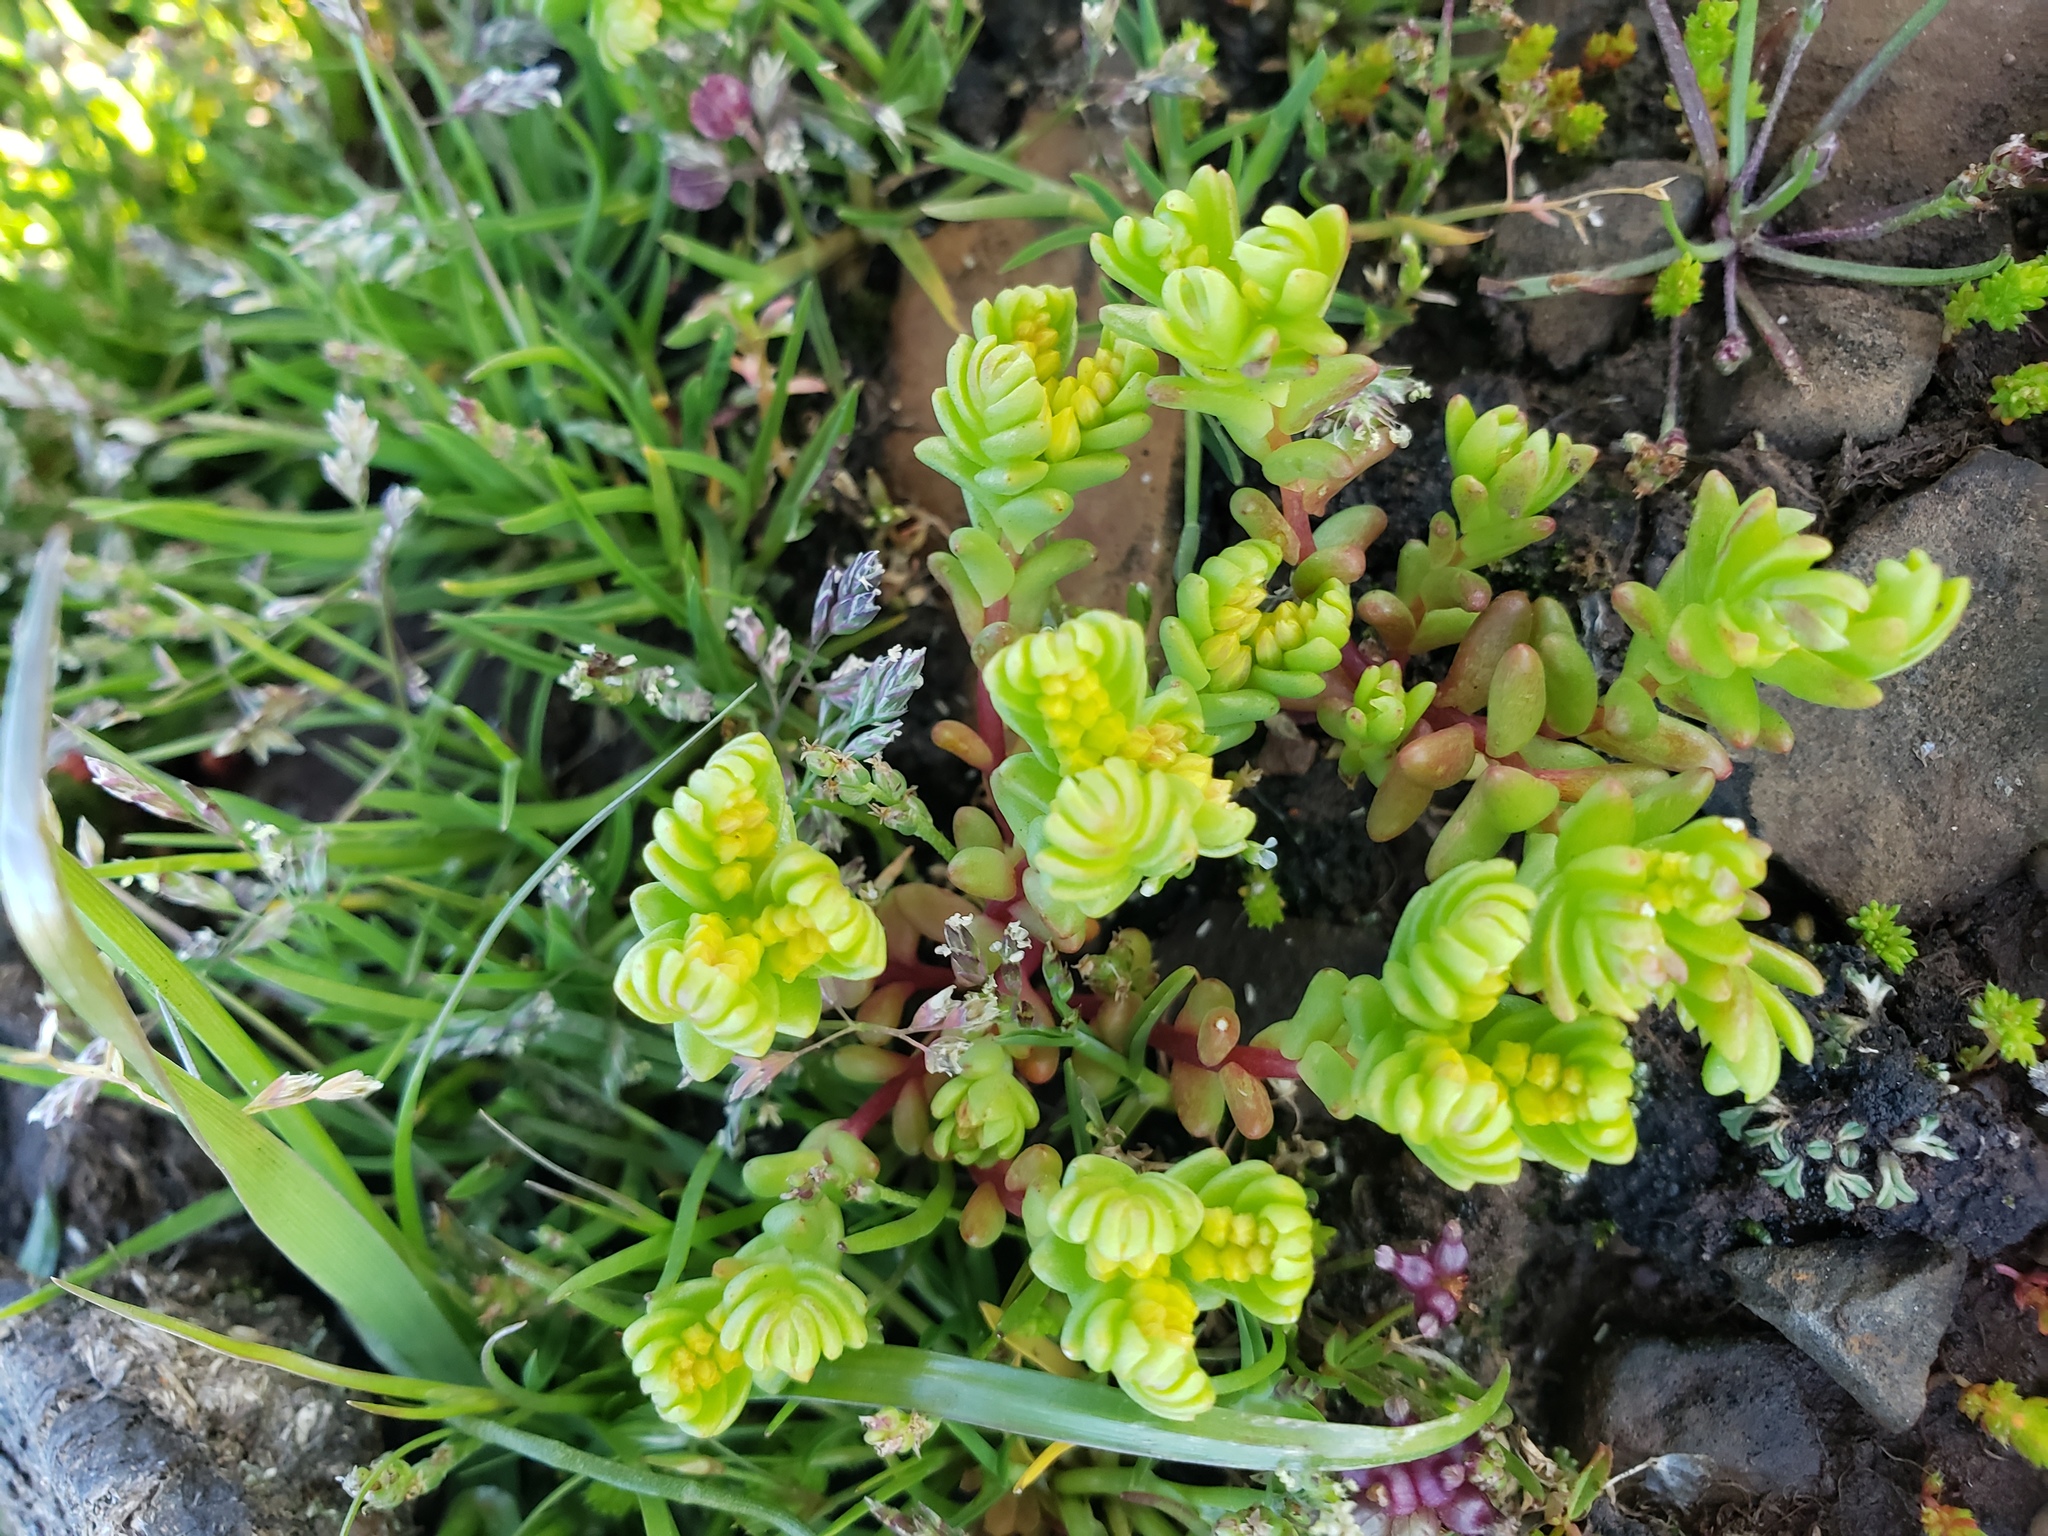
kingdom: Plantae
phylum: Tracheophyta
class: Magnoliopsida
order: Saxifragales
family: Crassulaceae
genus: Sedella
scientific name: Sedella pumila
